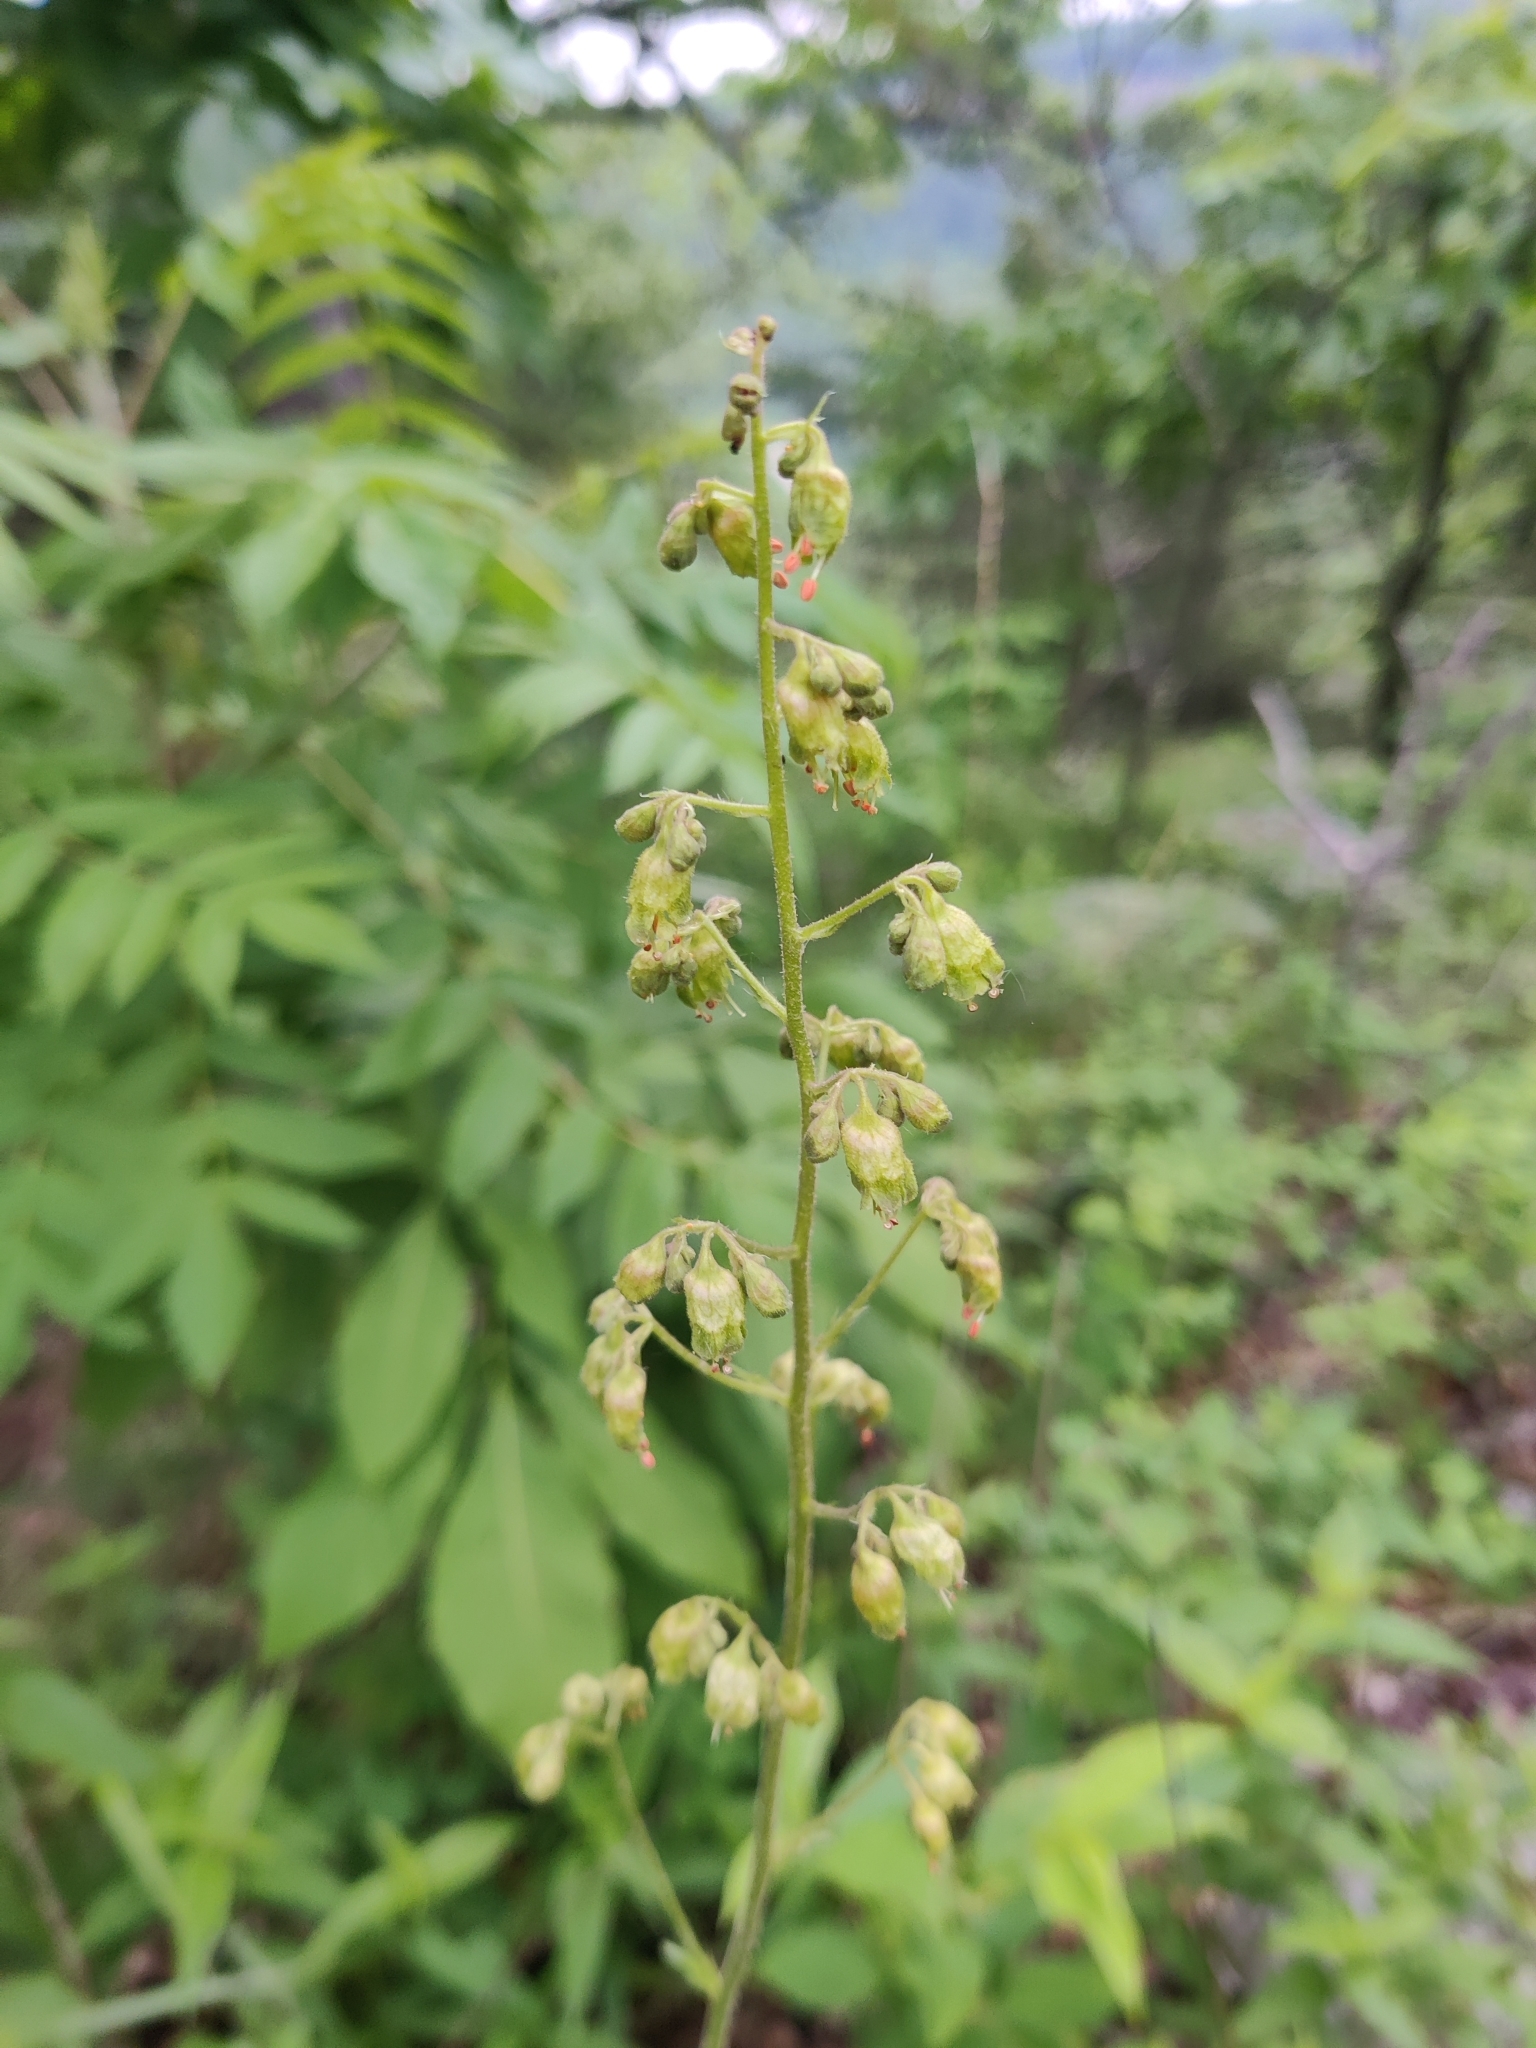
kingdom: Plantae
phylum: Tracheophyta
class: Magnoliopsida
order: Saxifragales
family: Saxifragaceae
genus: Heuchera
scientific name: Heuchera richardsonii
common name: Richardson's alumroot
